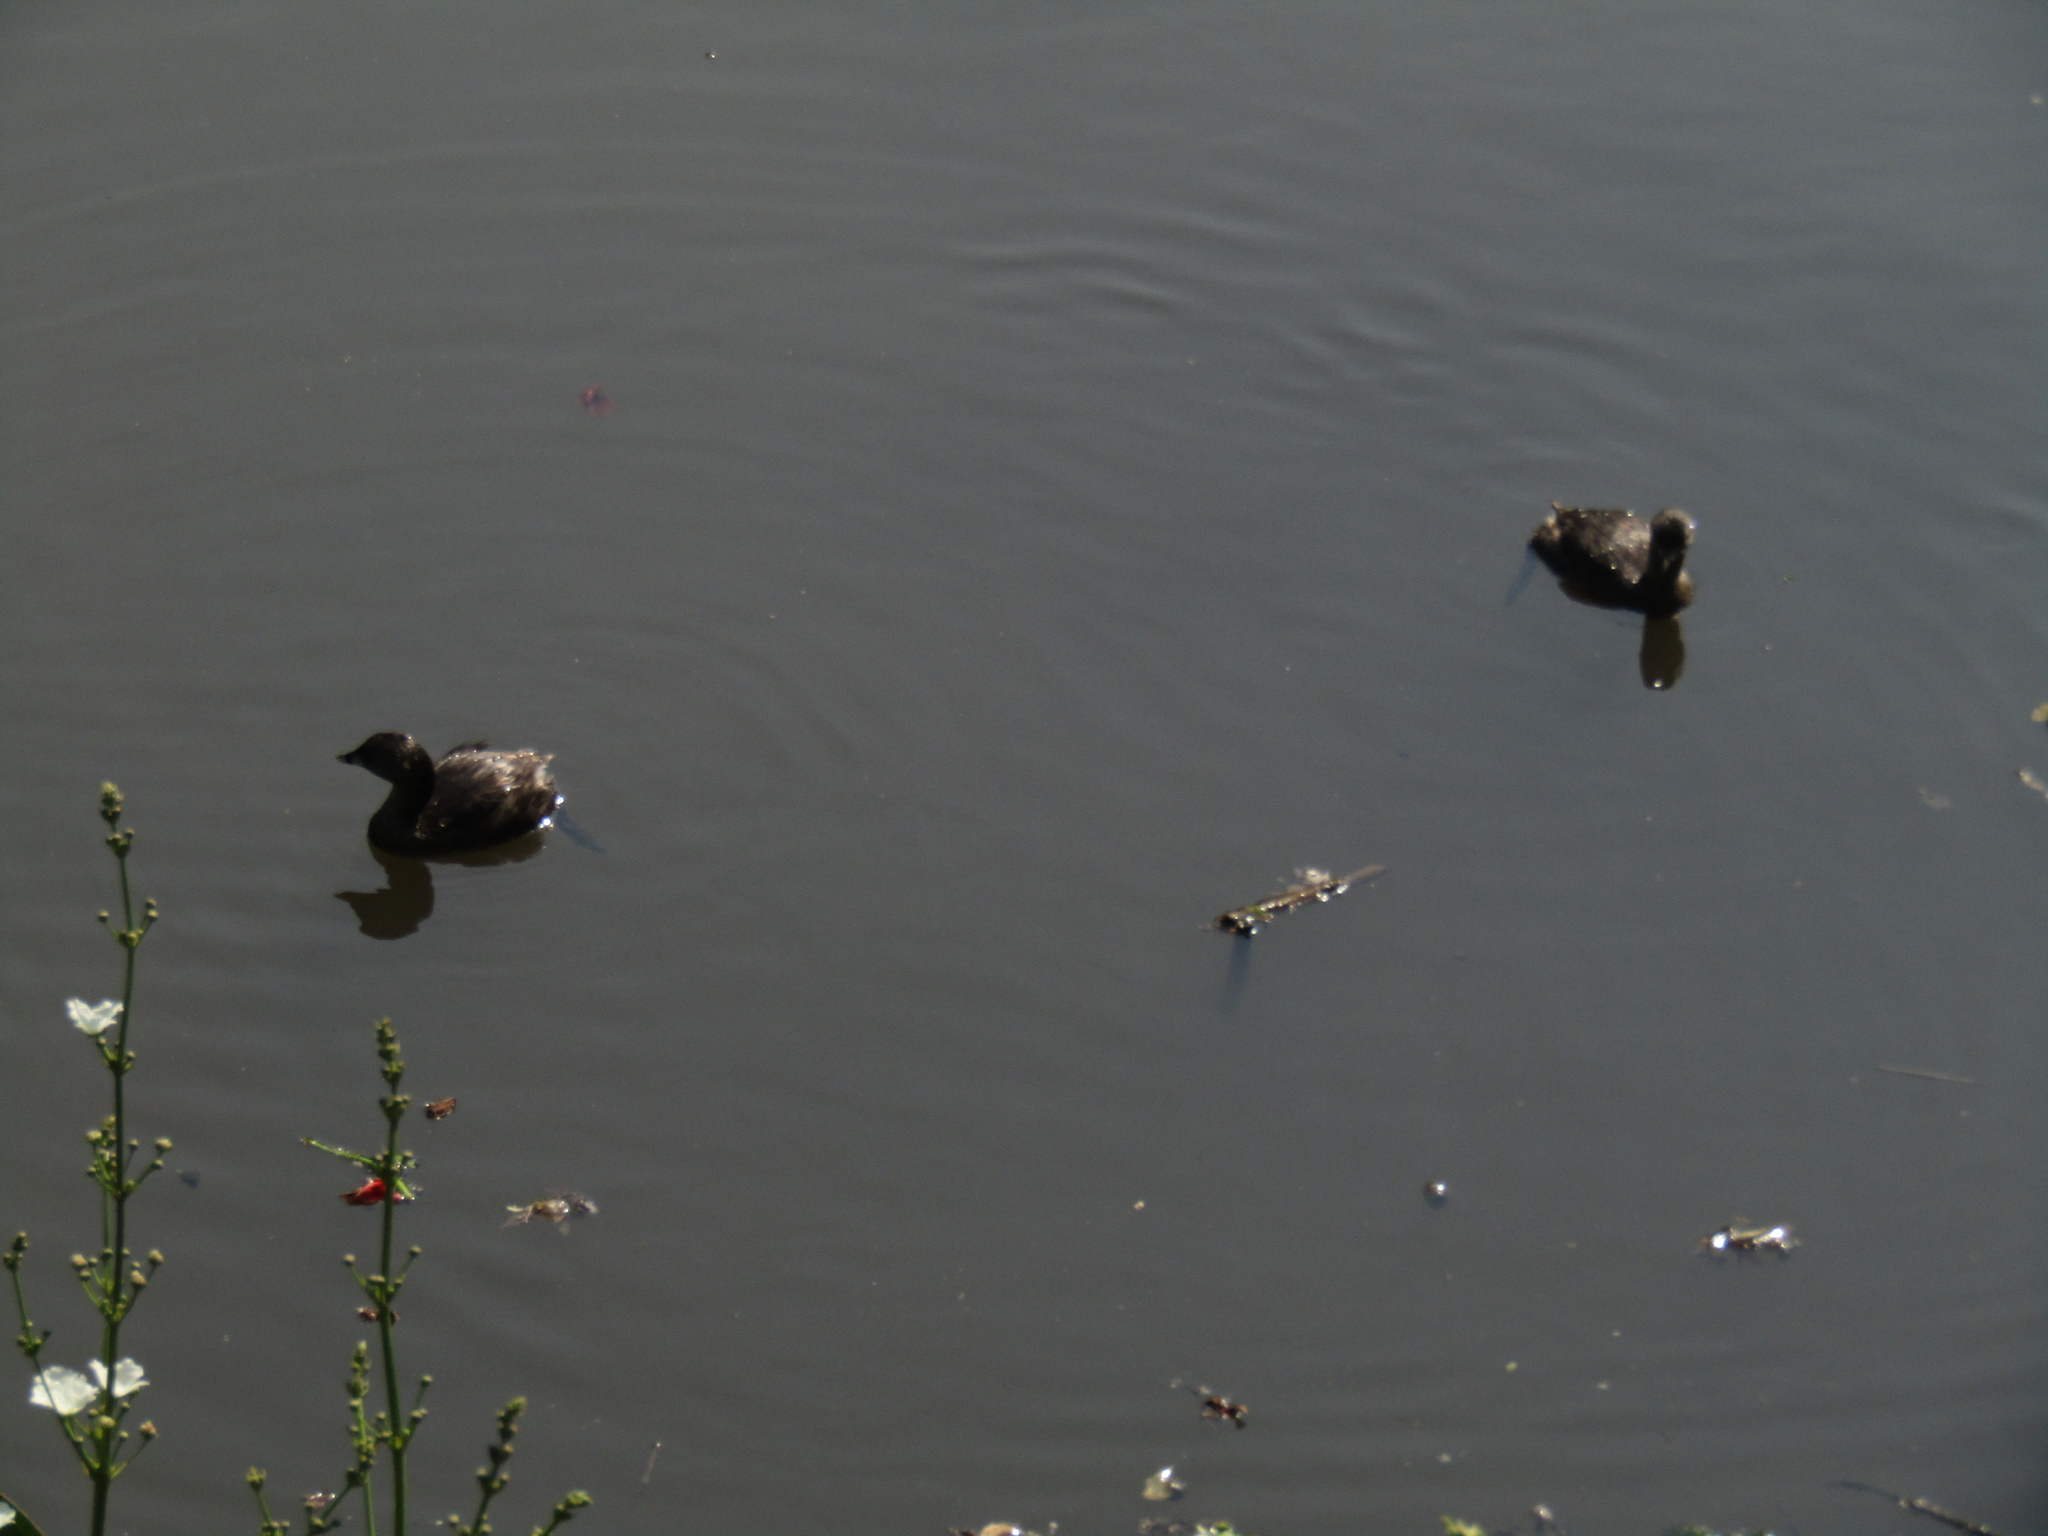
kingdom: Animalia
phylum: Chordata
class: Aves
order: Podicipediformes
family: Podicipedidae
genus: Podilymbus
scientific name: Podilymbus podiceps
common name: Pied-billed grebe
